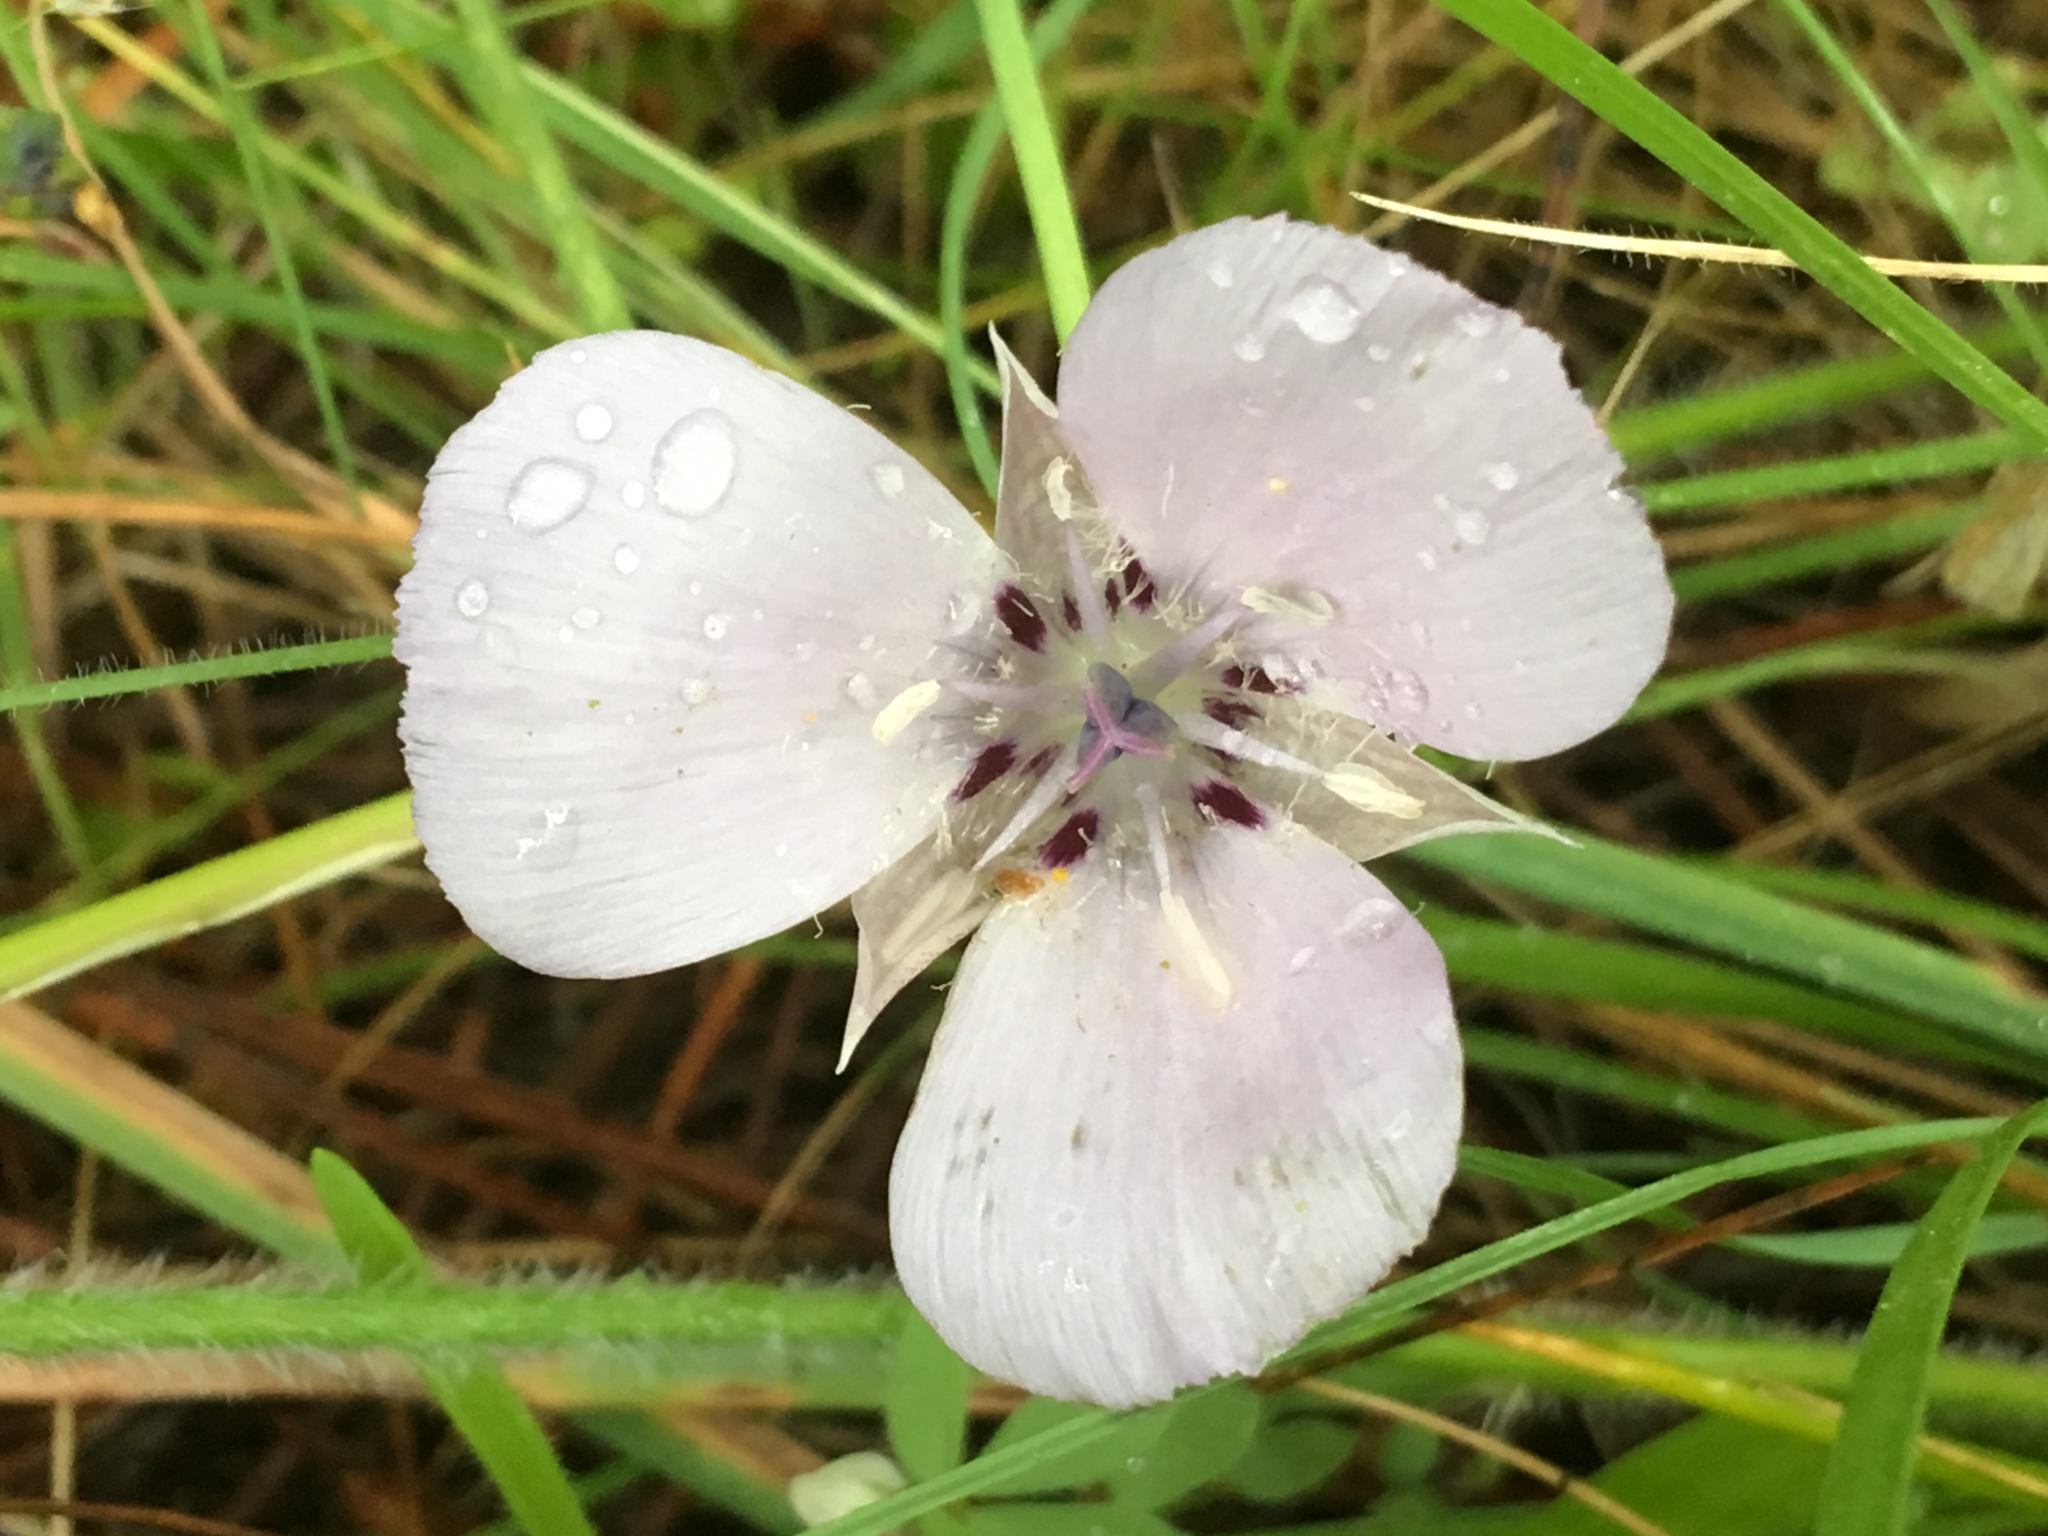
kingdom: Plantae
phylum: Tracheophyta
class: Liliopsida
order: Liliales
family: Liliaceae
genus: Calochortus
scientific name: Calochortus uniflorus
